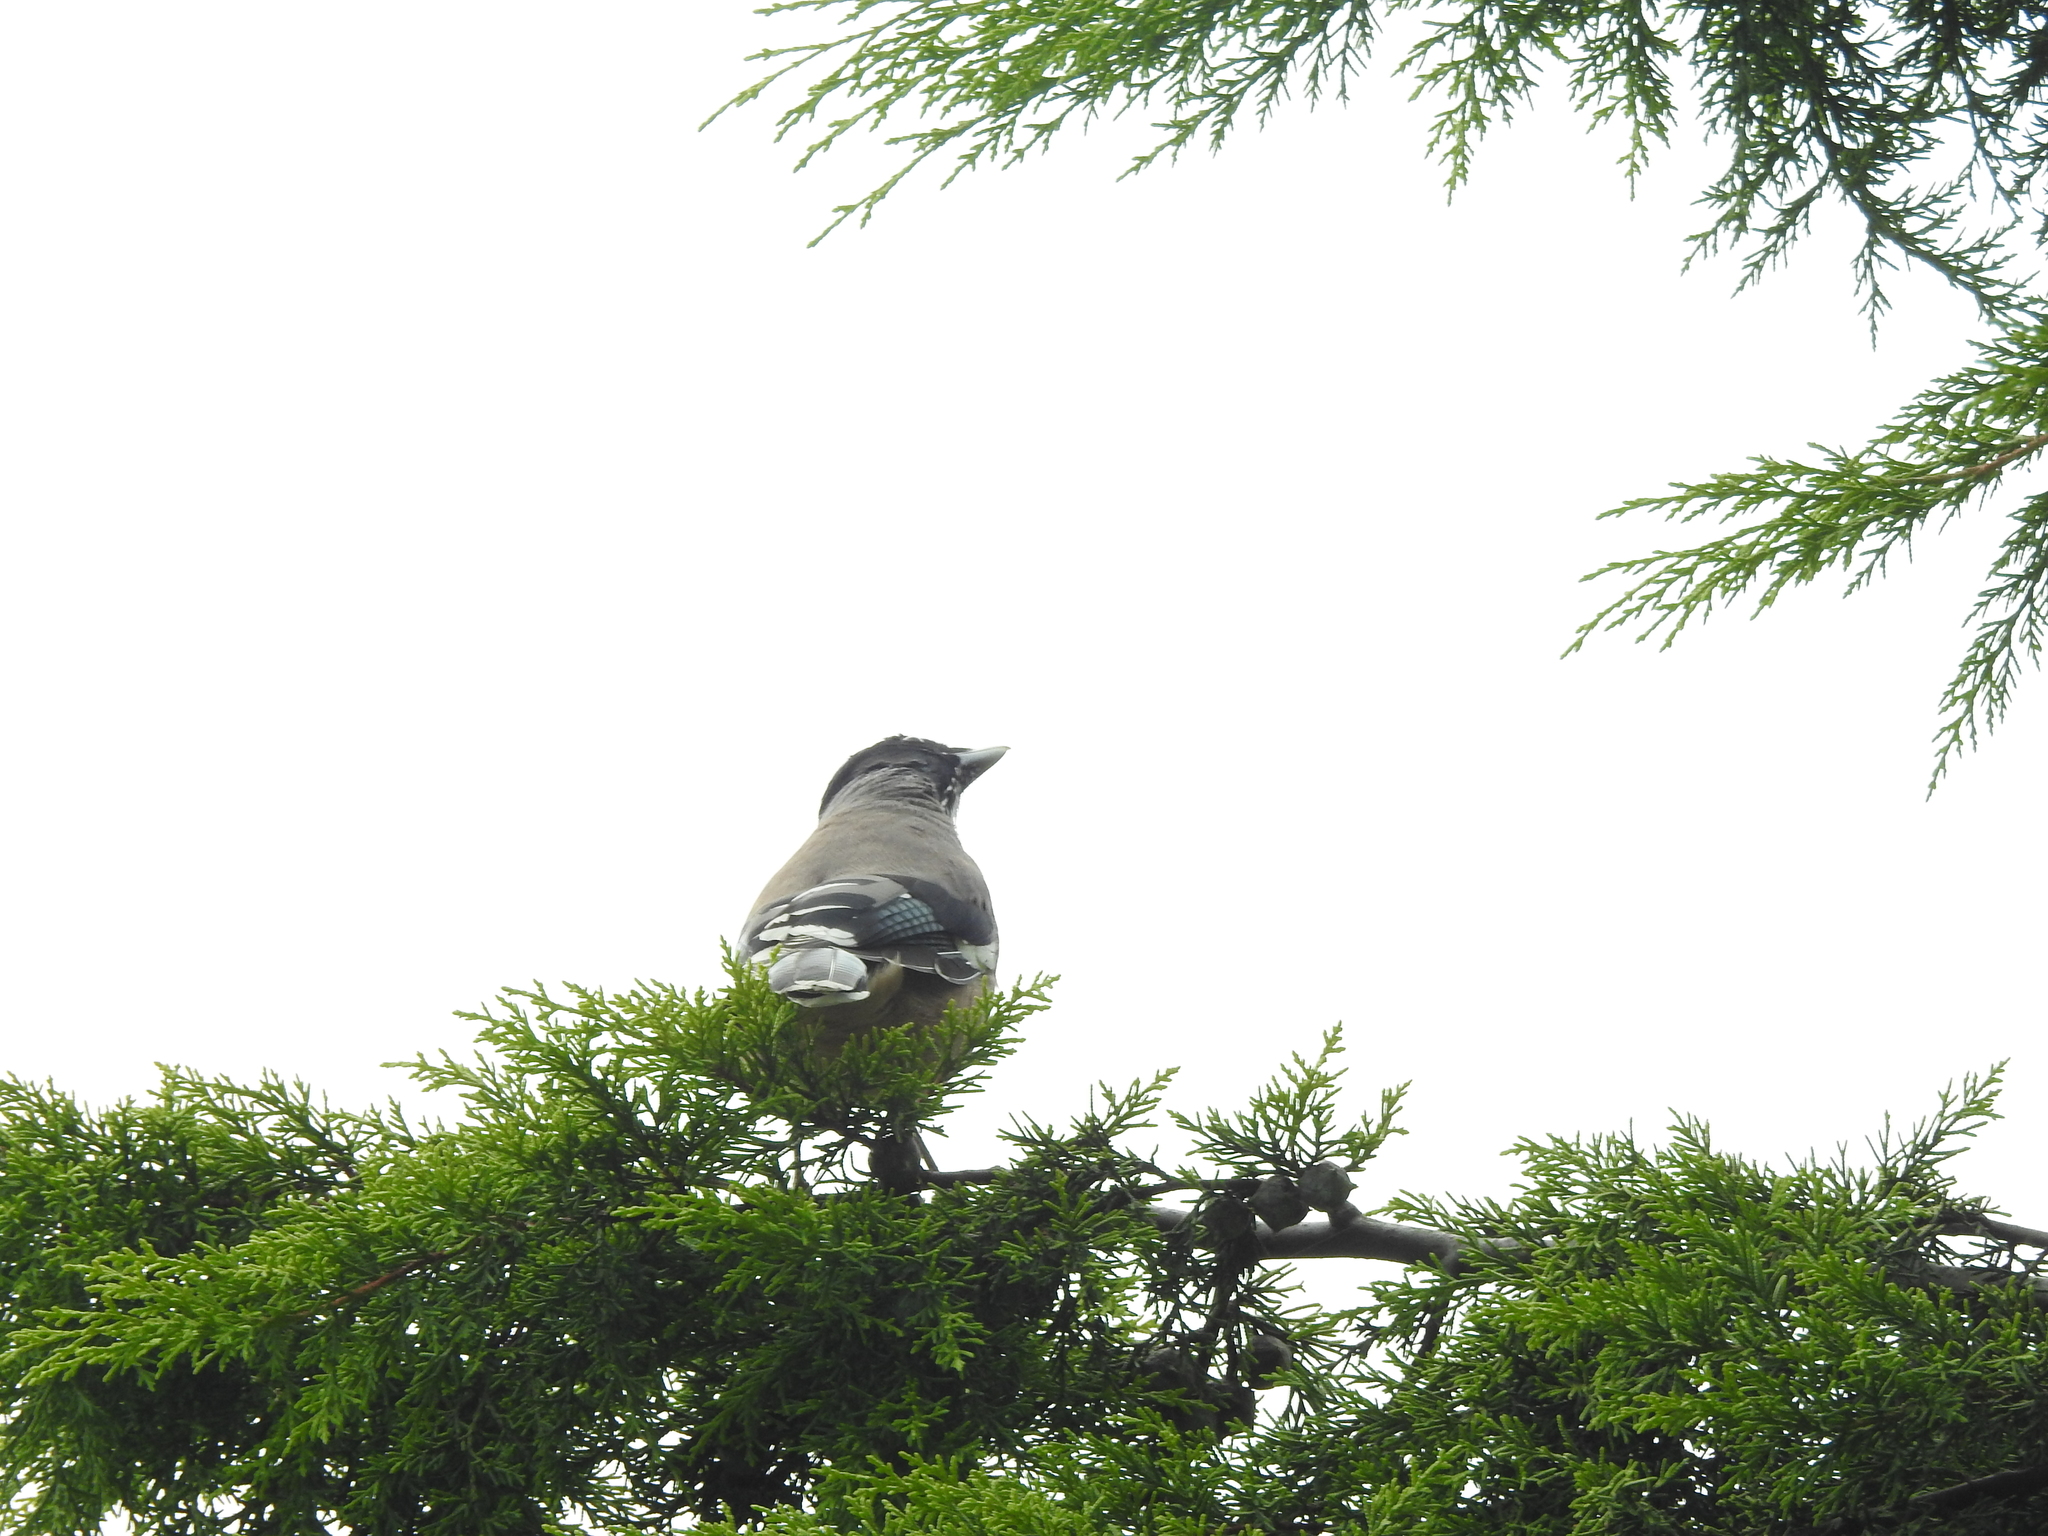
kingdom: Animalia
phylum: Chordata
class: Aves
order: Passeriformes
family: Corvidae
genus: Garrulus
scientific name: Garrulus lanceolatus
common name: Black-headed jay
